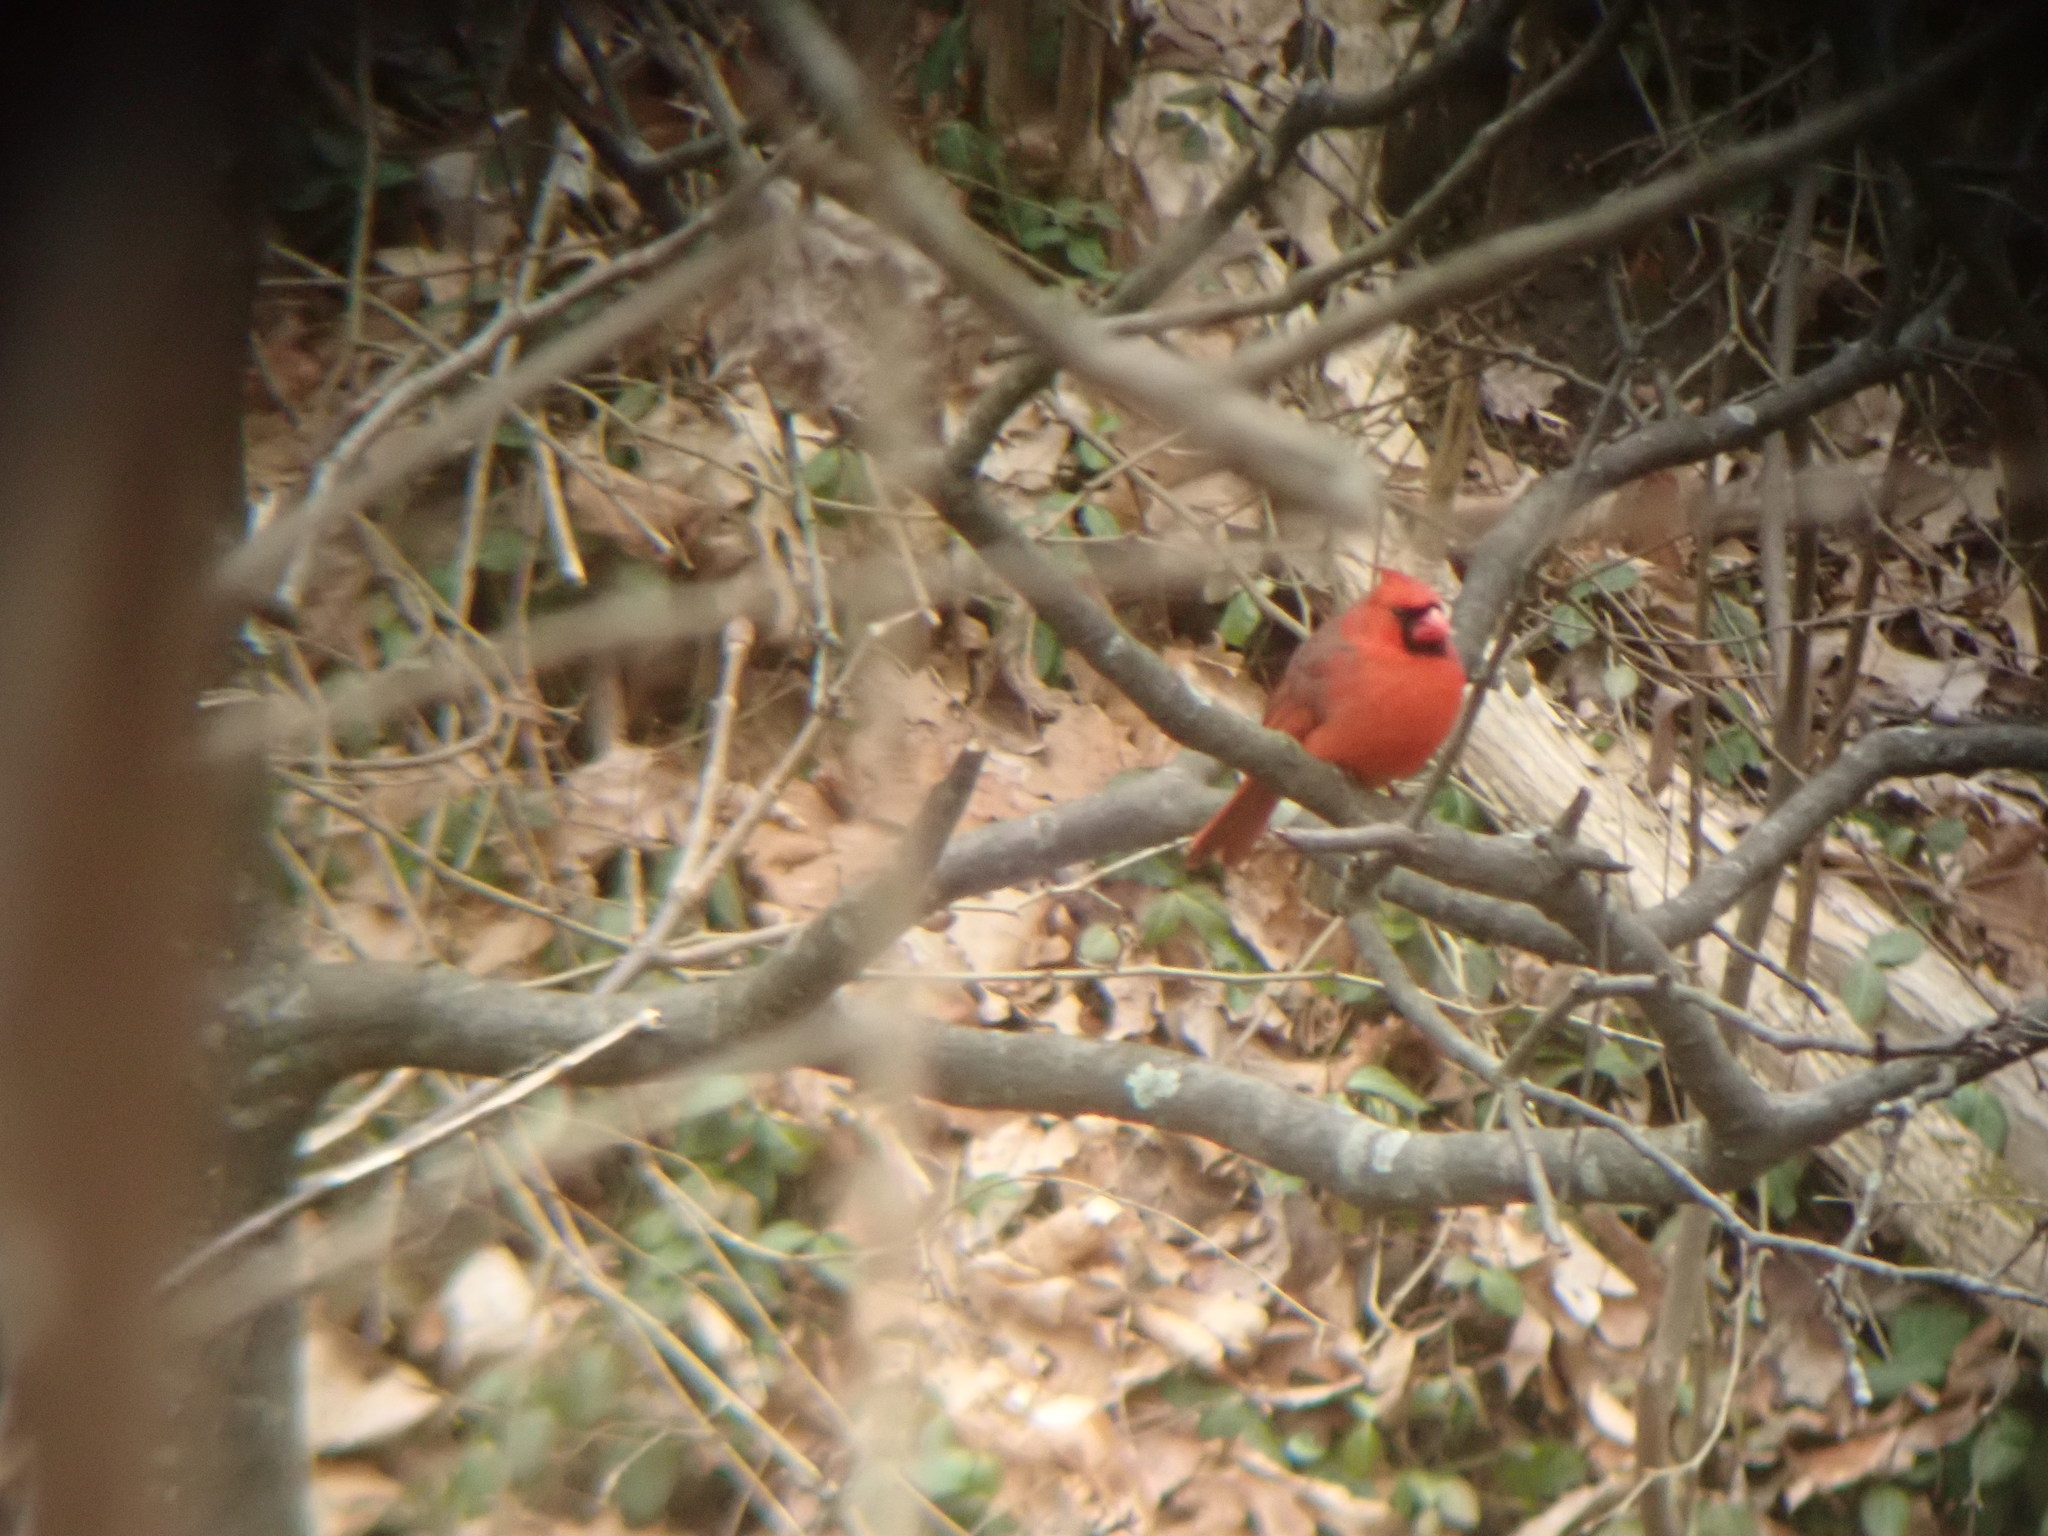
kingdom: Animalia
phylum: Chordata
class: Aves
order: Passeriformes
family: Cardinalidae
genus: Cardinalis
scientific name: Cardinalis cardinalis
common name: Northern cardinal
